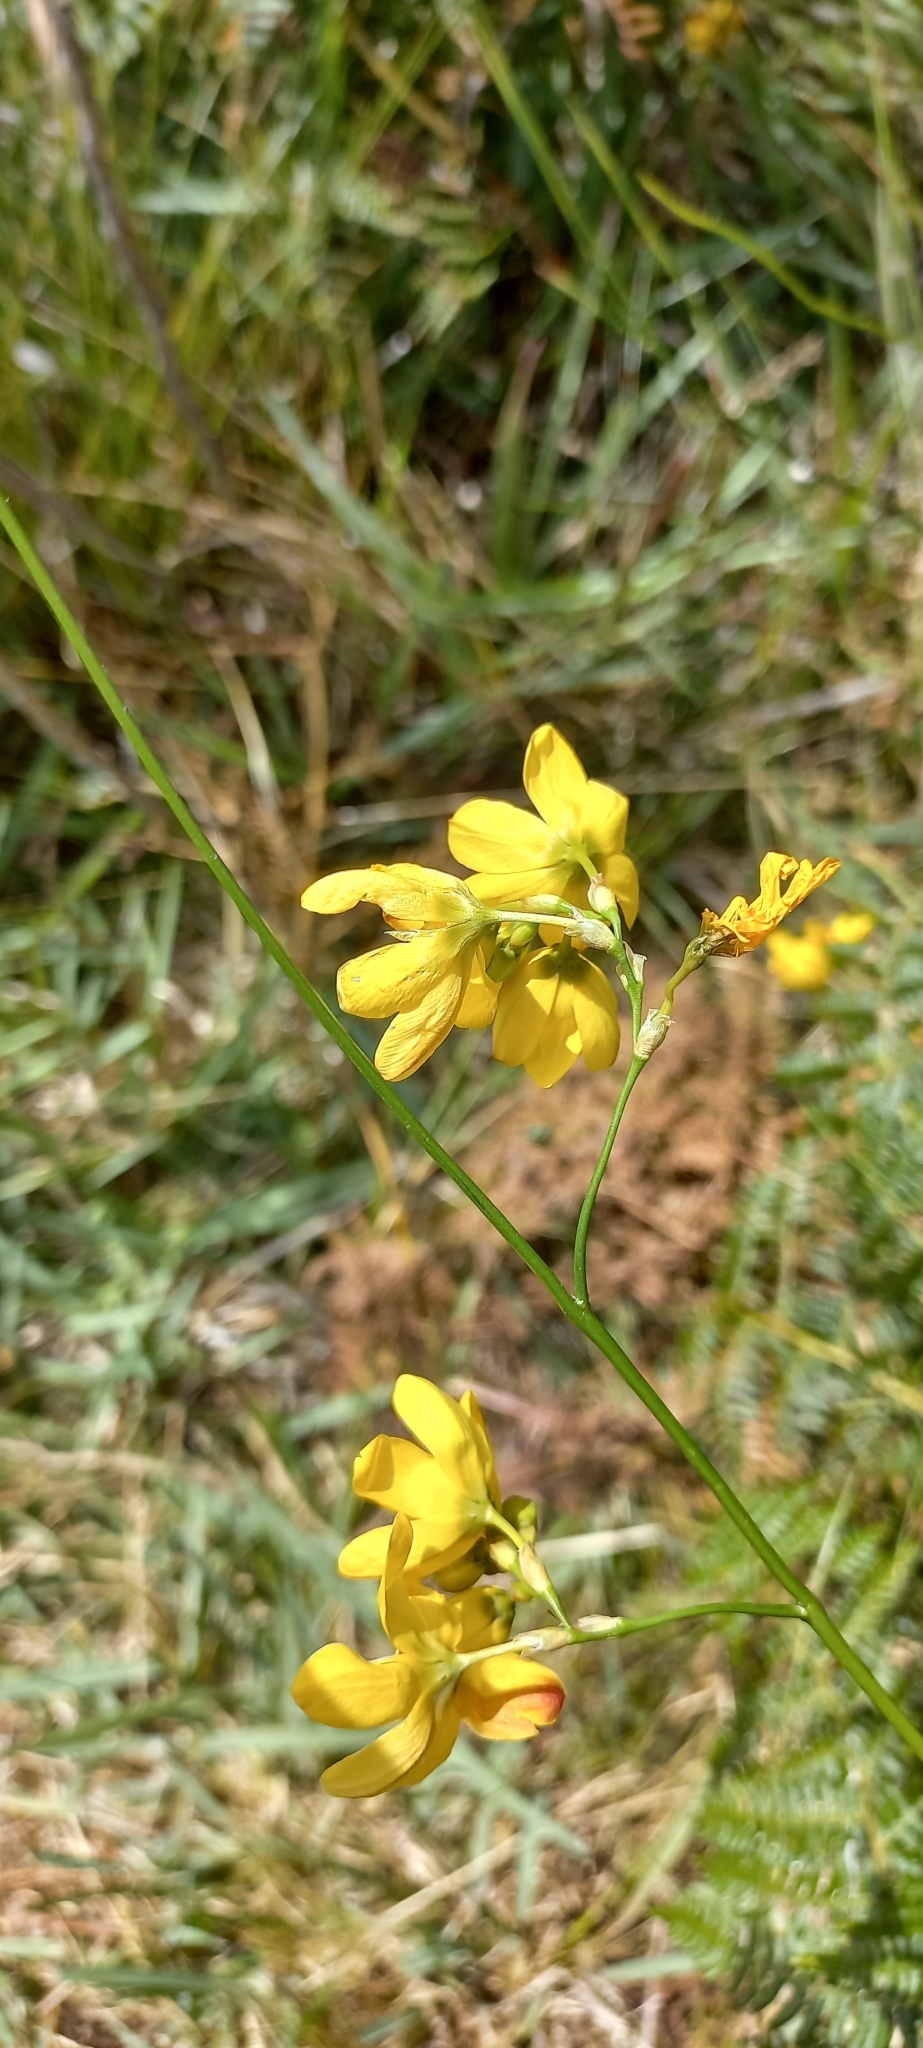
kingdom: Plantae
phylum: Tracheophyta
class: Liliopsida
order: Asparagales
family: Iridaceae
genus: Ixia
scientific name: Ixia sarmentosa
